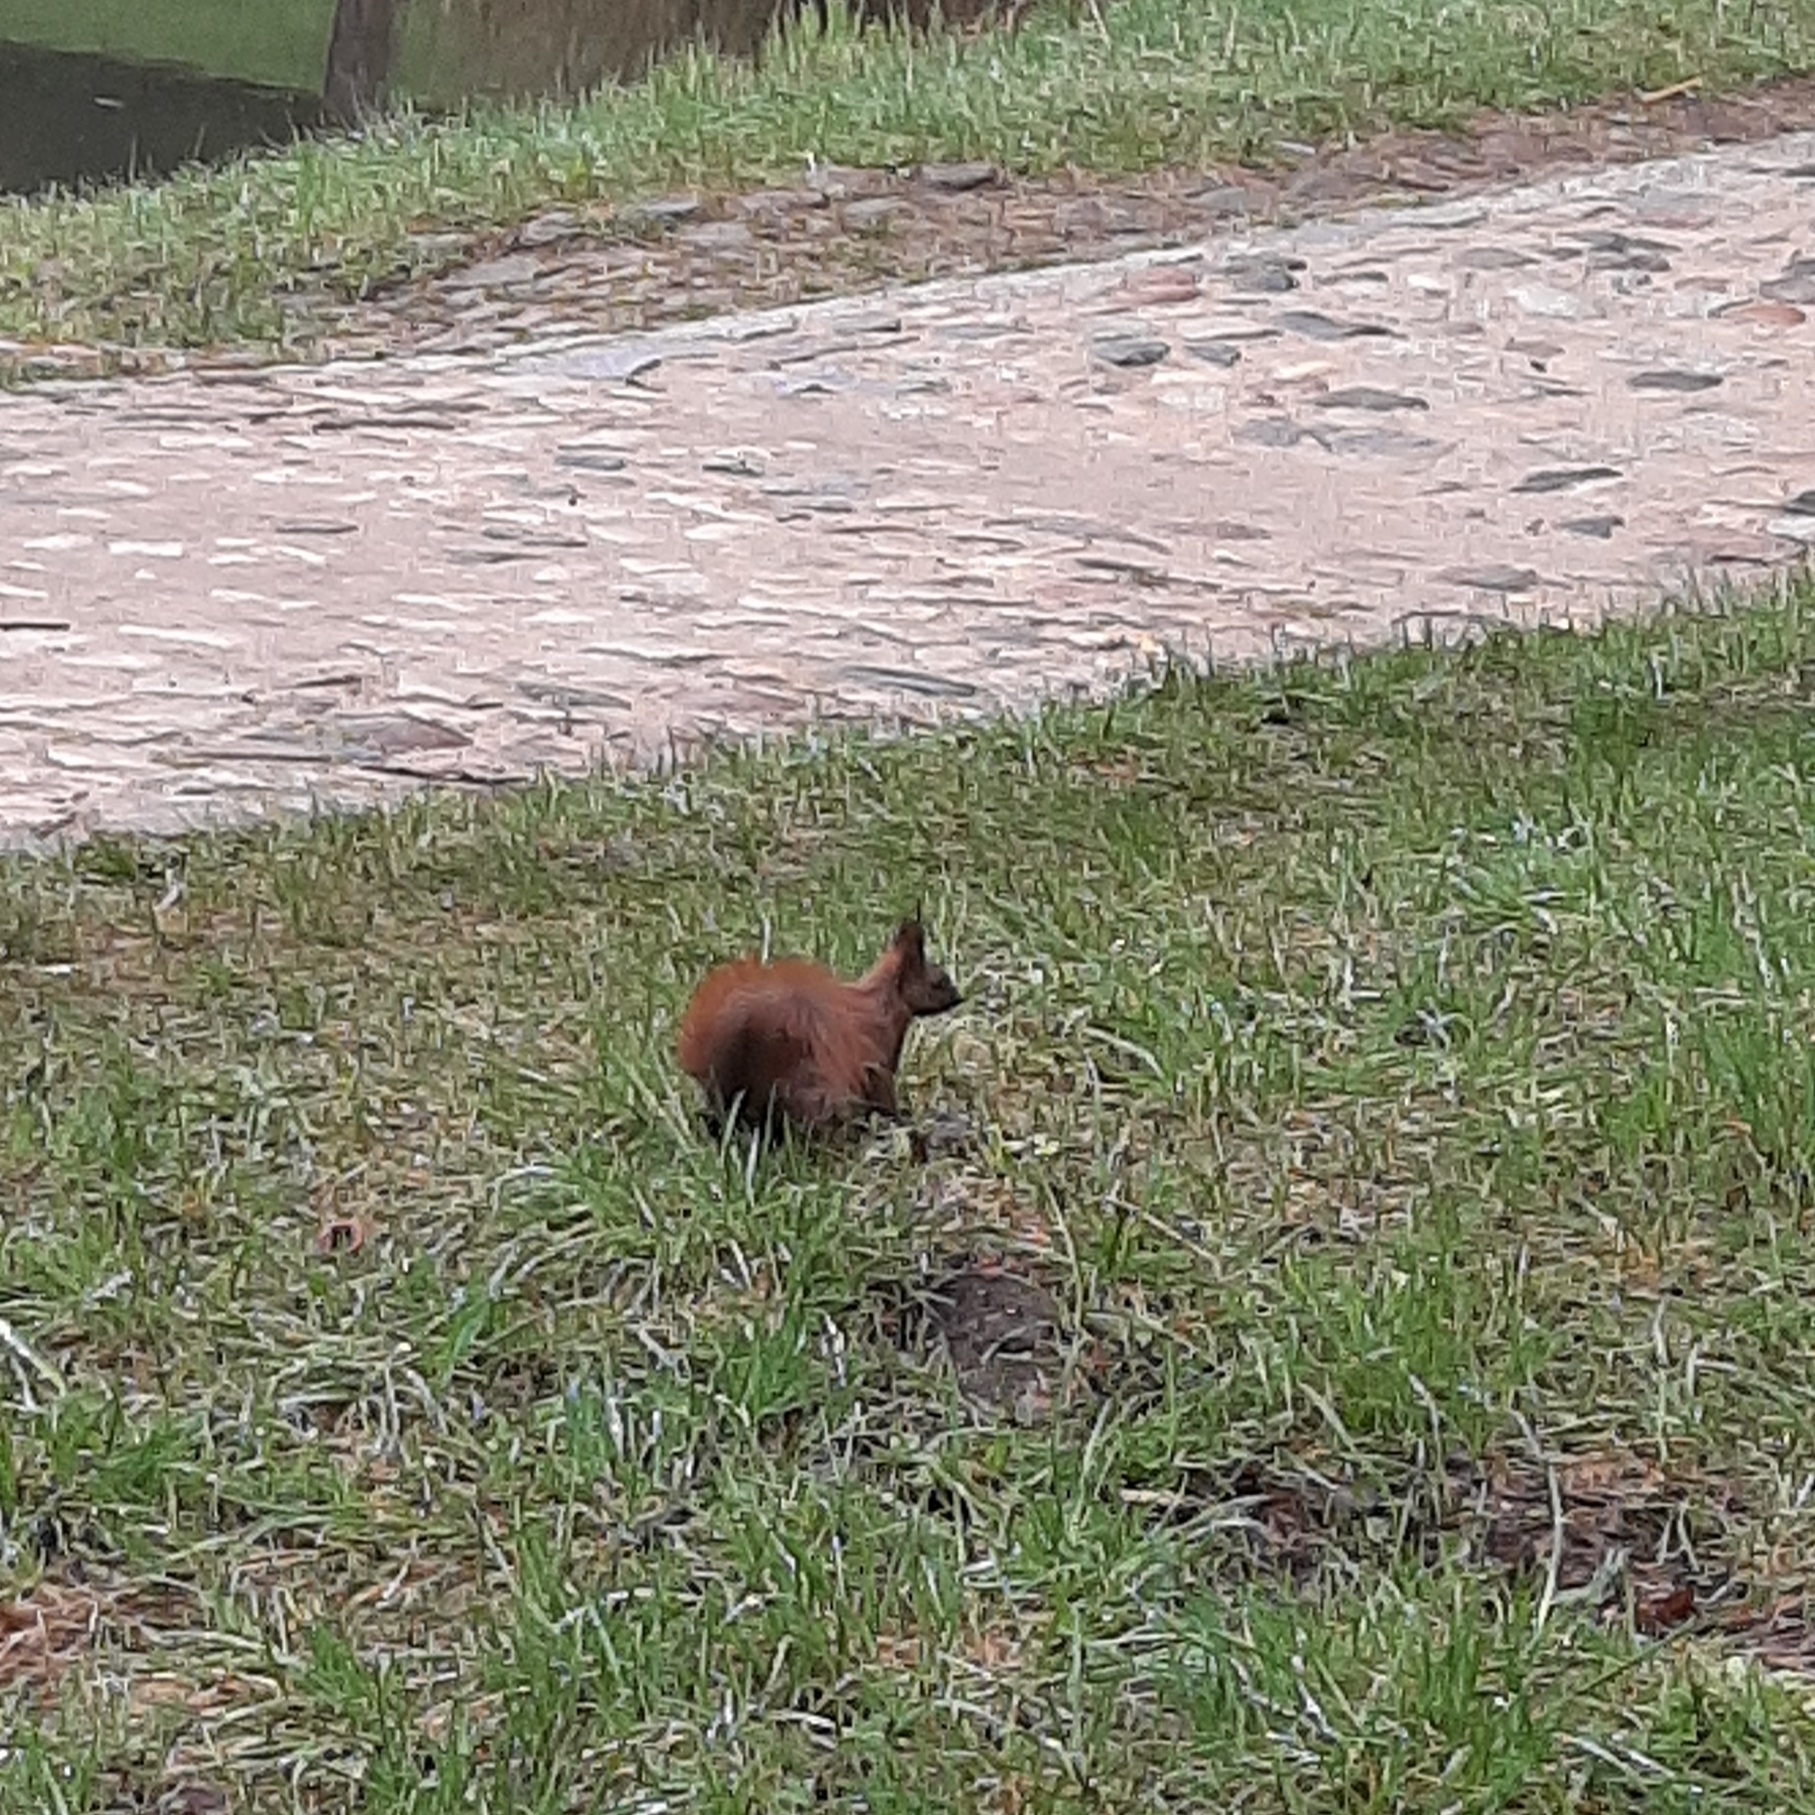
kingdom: Animalia
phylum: Chordata
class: Mammalia
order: Rodentia
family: Sciuridae
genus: Sciurus
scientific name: Sciurus vulgaris
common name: Eurasian red squirrel
